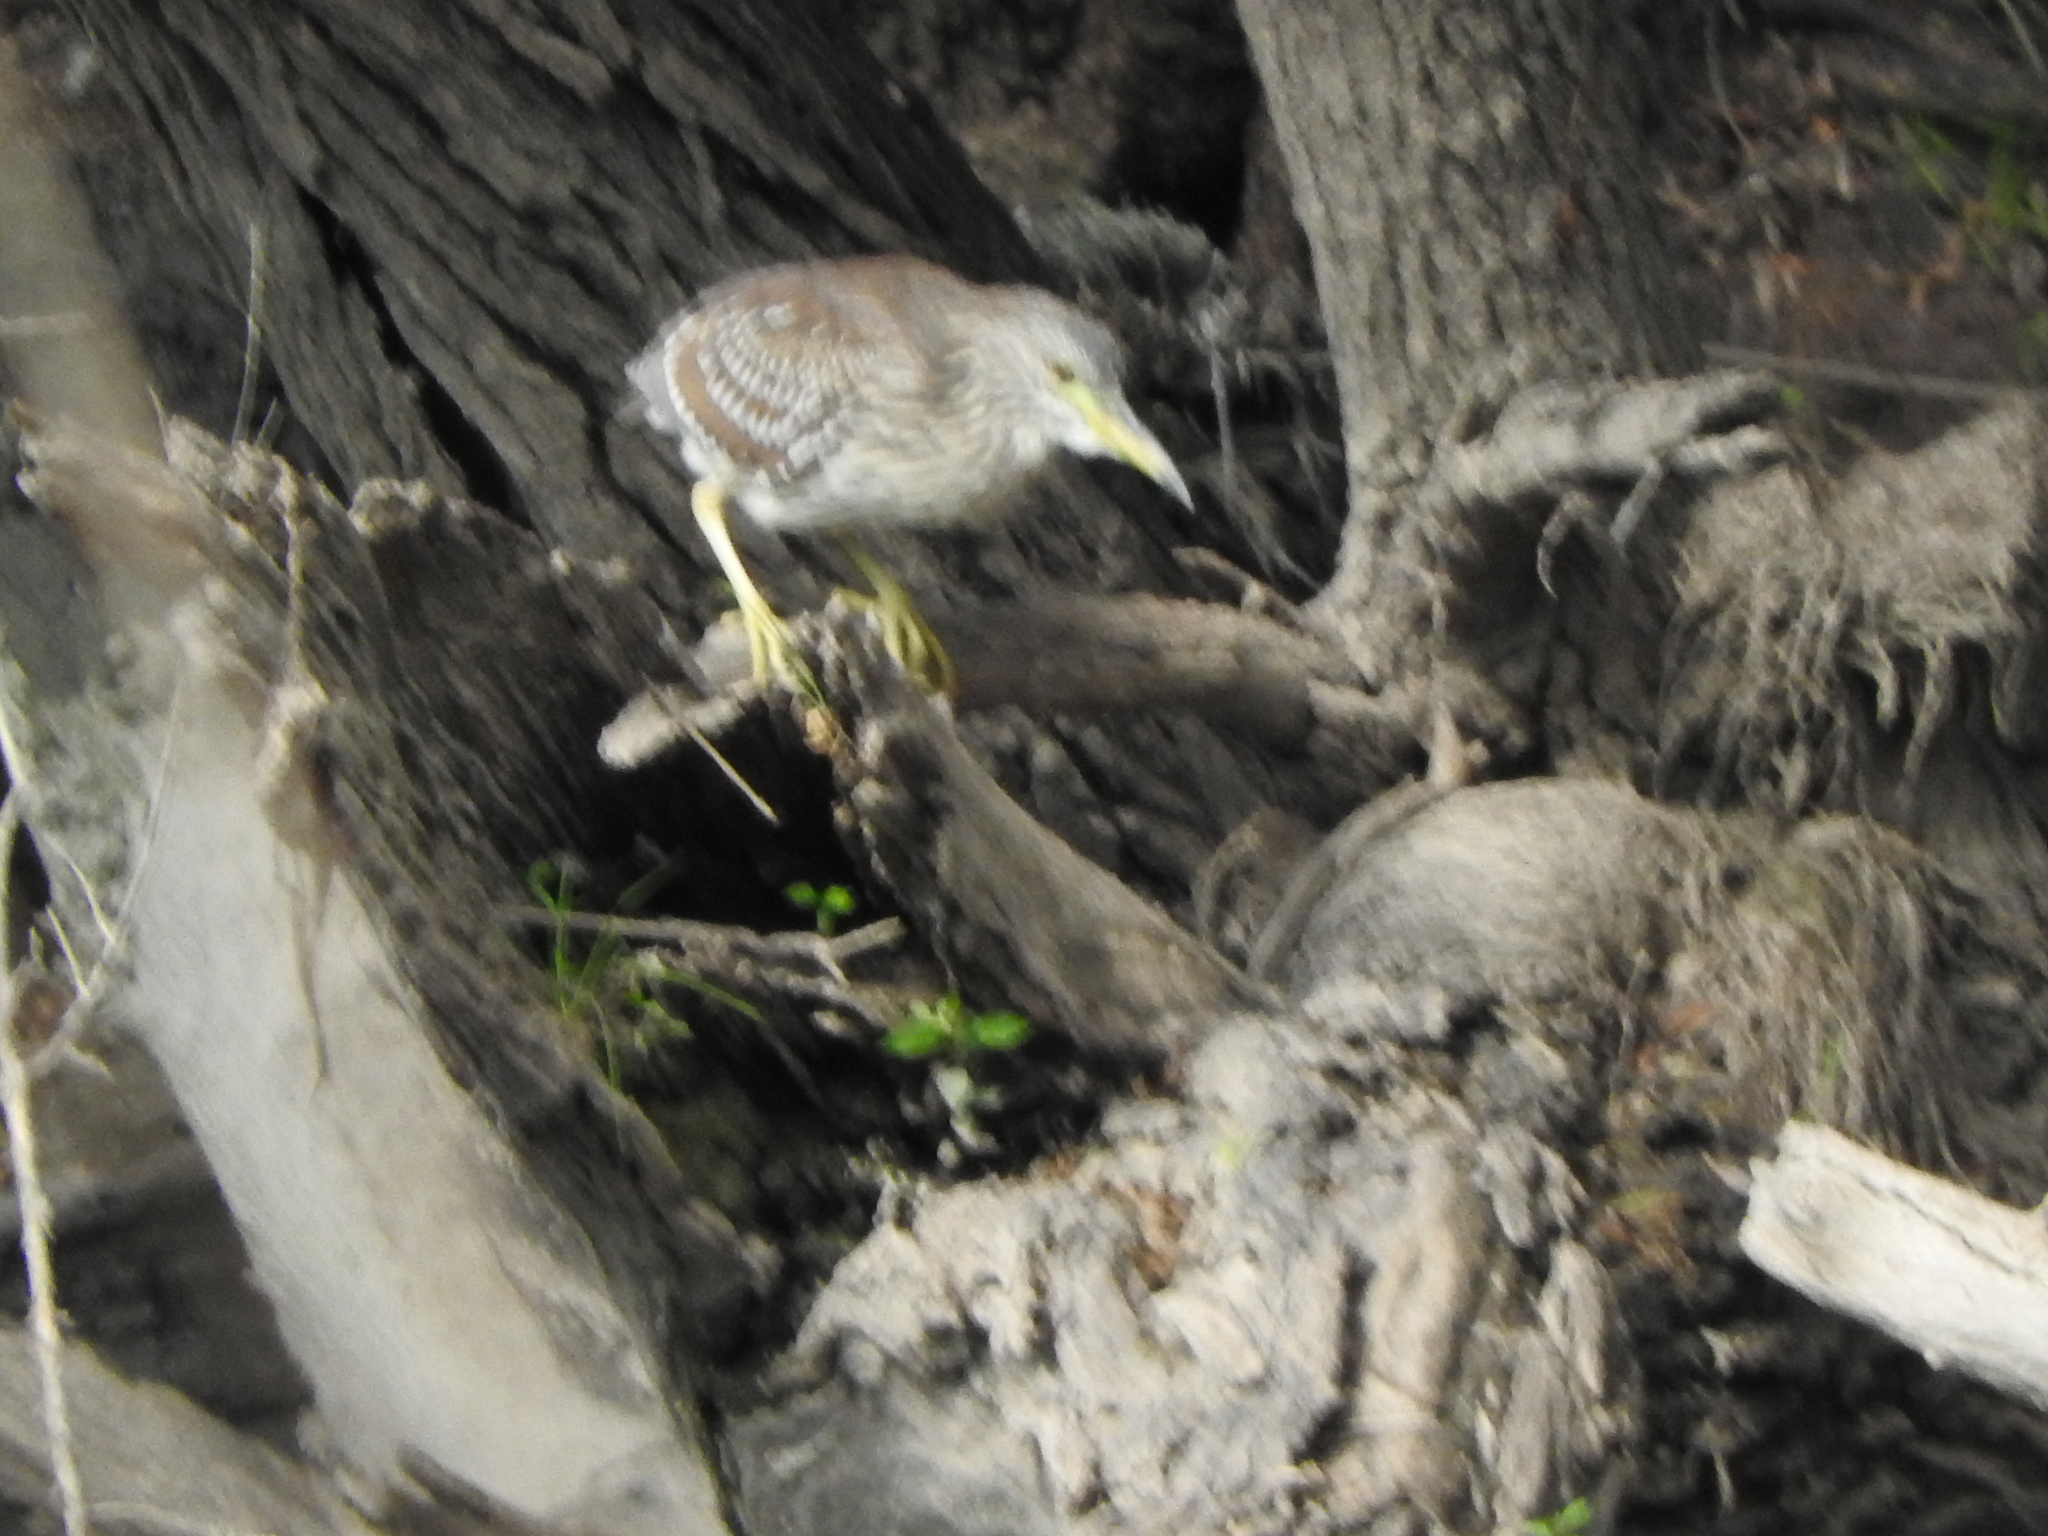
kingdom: Animalia
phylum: Chordata
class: Aves
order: Pelecaniformes
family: Ardeidae
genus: Nycticorax
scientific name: Nycticorax nycticorax
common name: Black-crowned night heron
